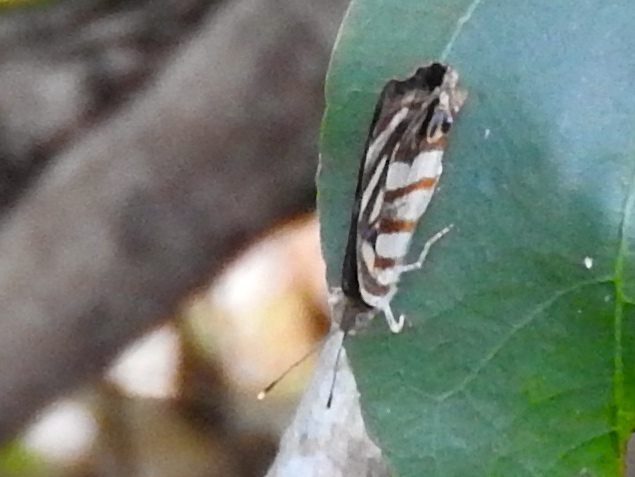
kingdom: Animalia
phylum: Arthropoda
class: Insecta
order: Lepidoptera
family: Nymphalidae
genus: Dynamine
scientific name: Dynamine mylitta
